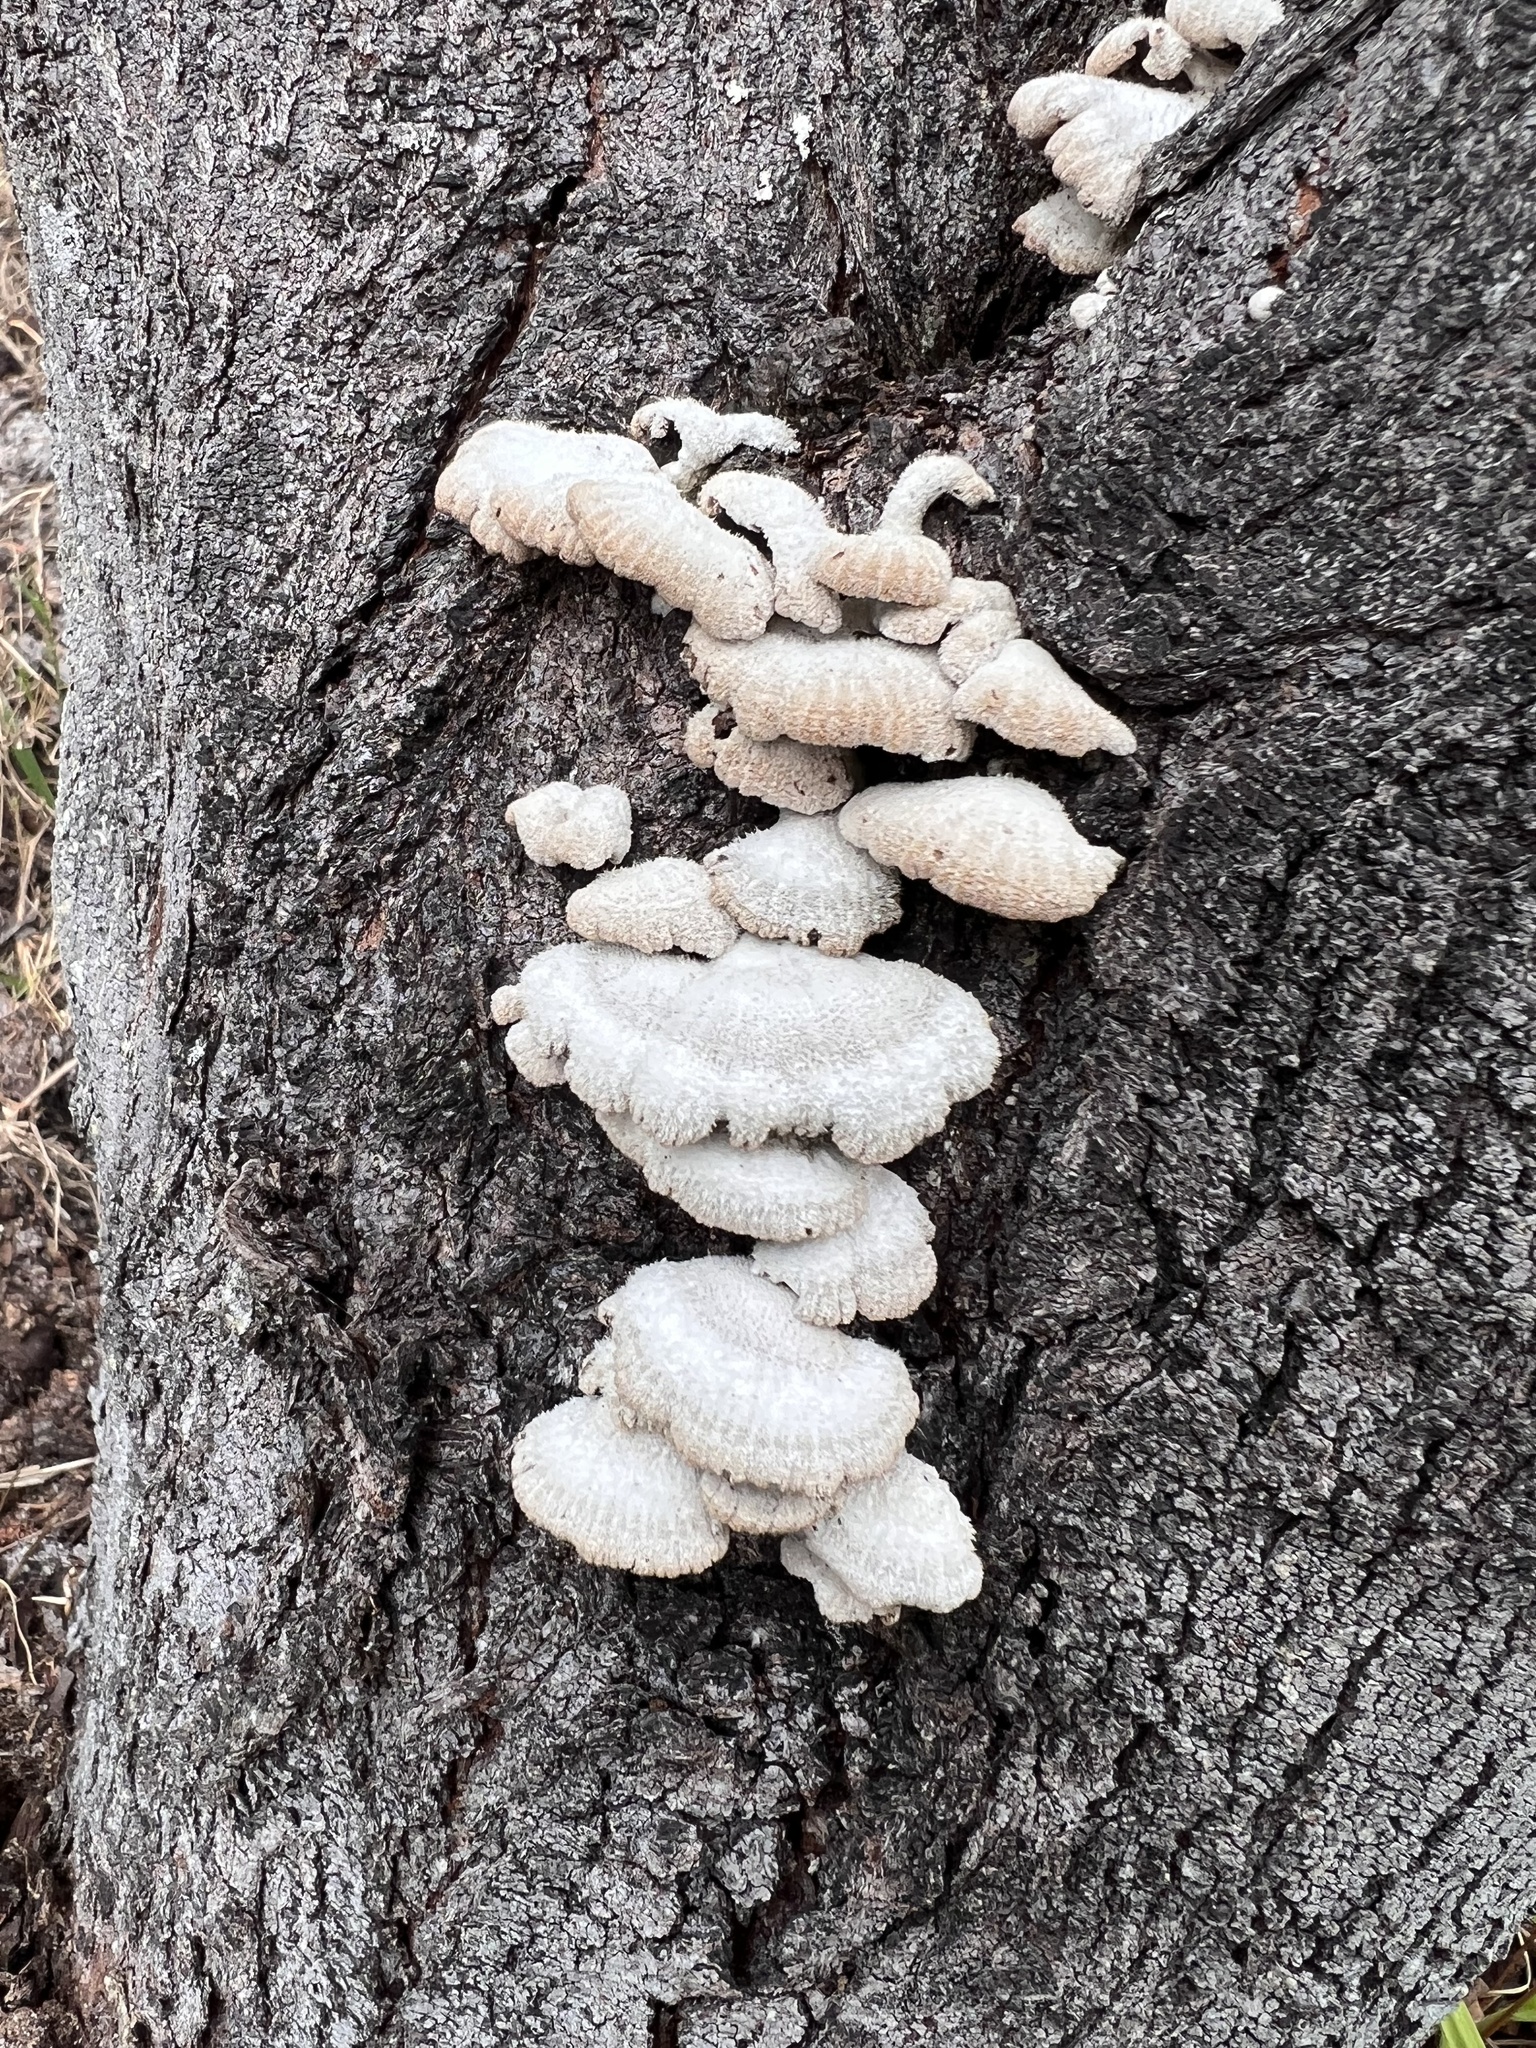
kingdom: Fungi
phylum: Basidiomycota
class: Agaricomycetes
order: Agaricales
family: Schizophyllaceae
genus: Schizophyllum
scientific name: Schizophyllum commune
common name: Common porecrust
